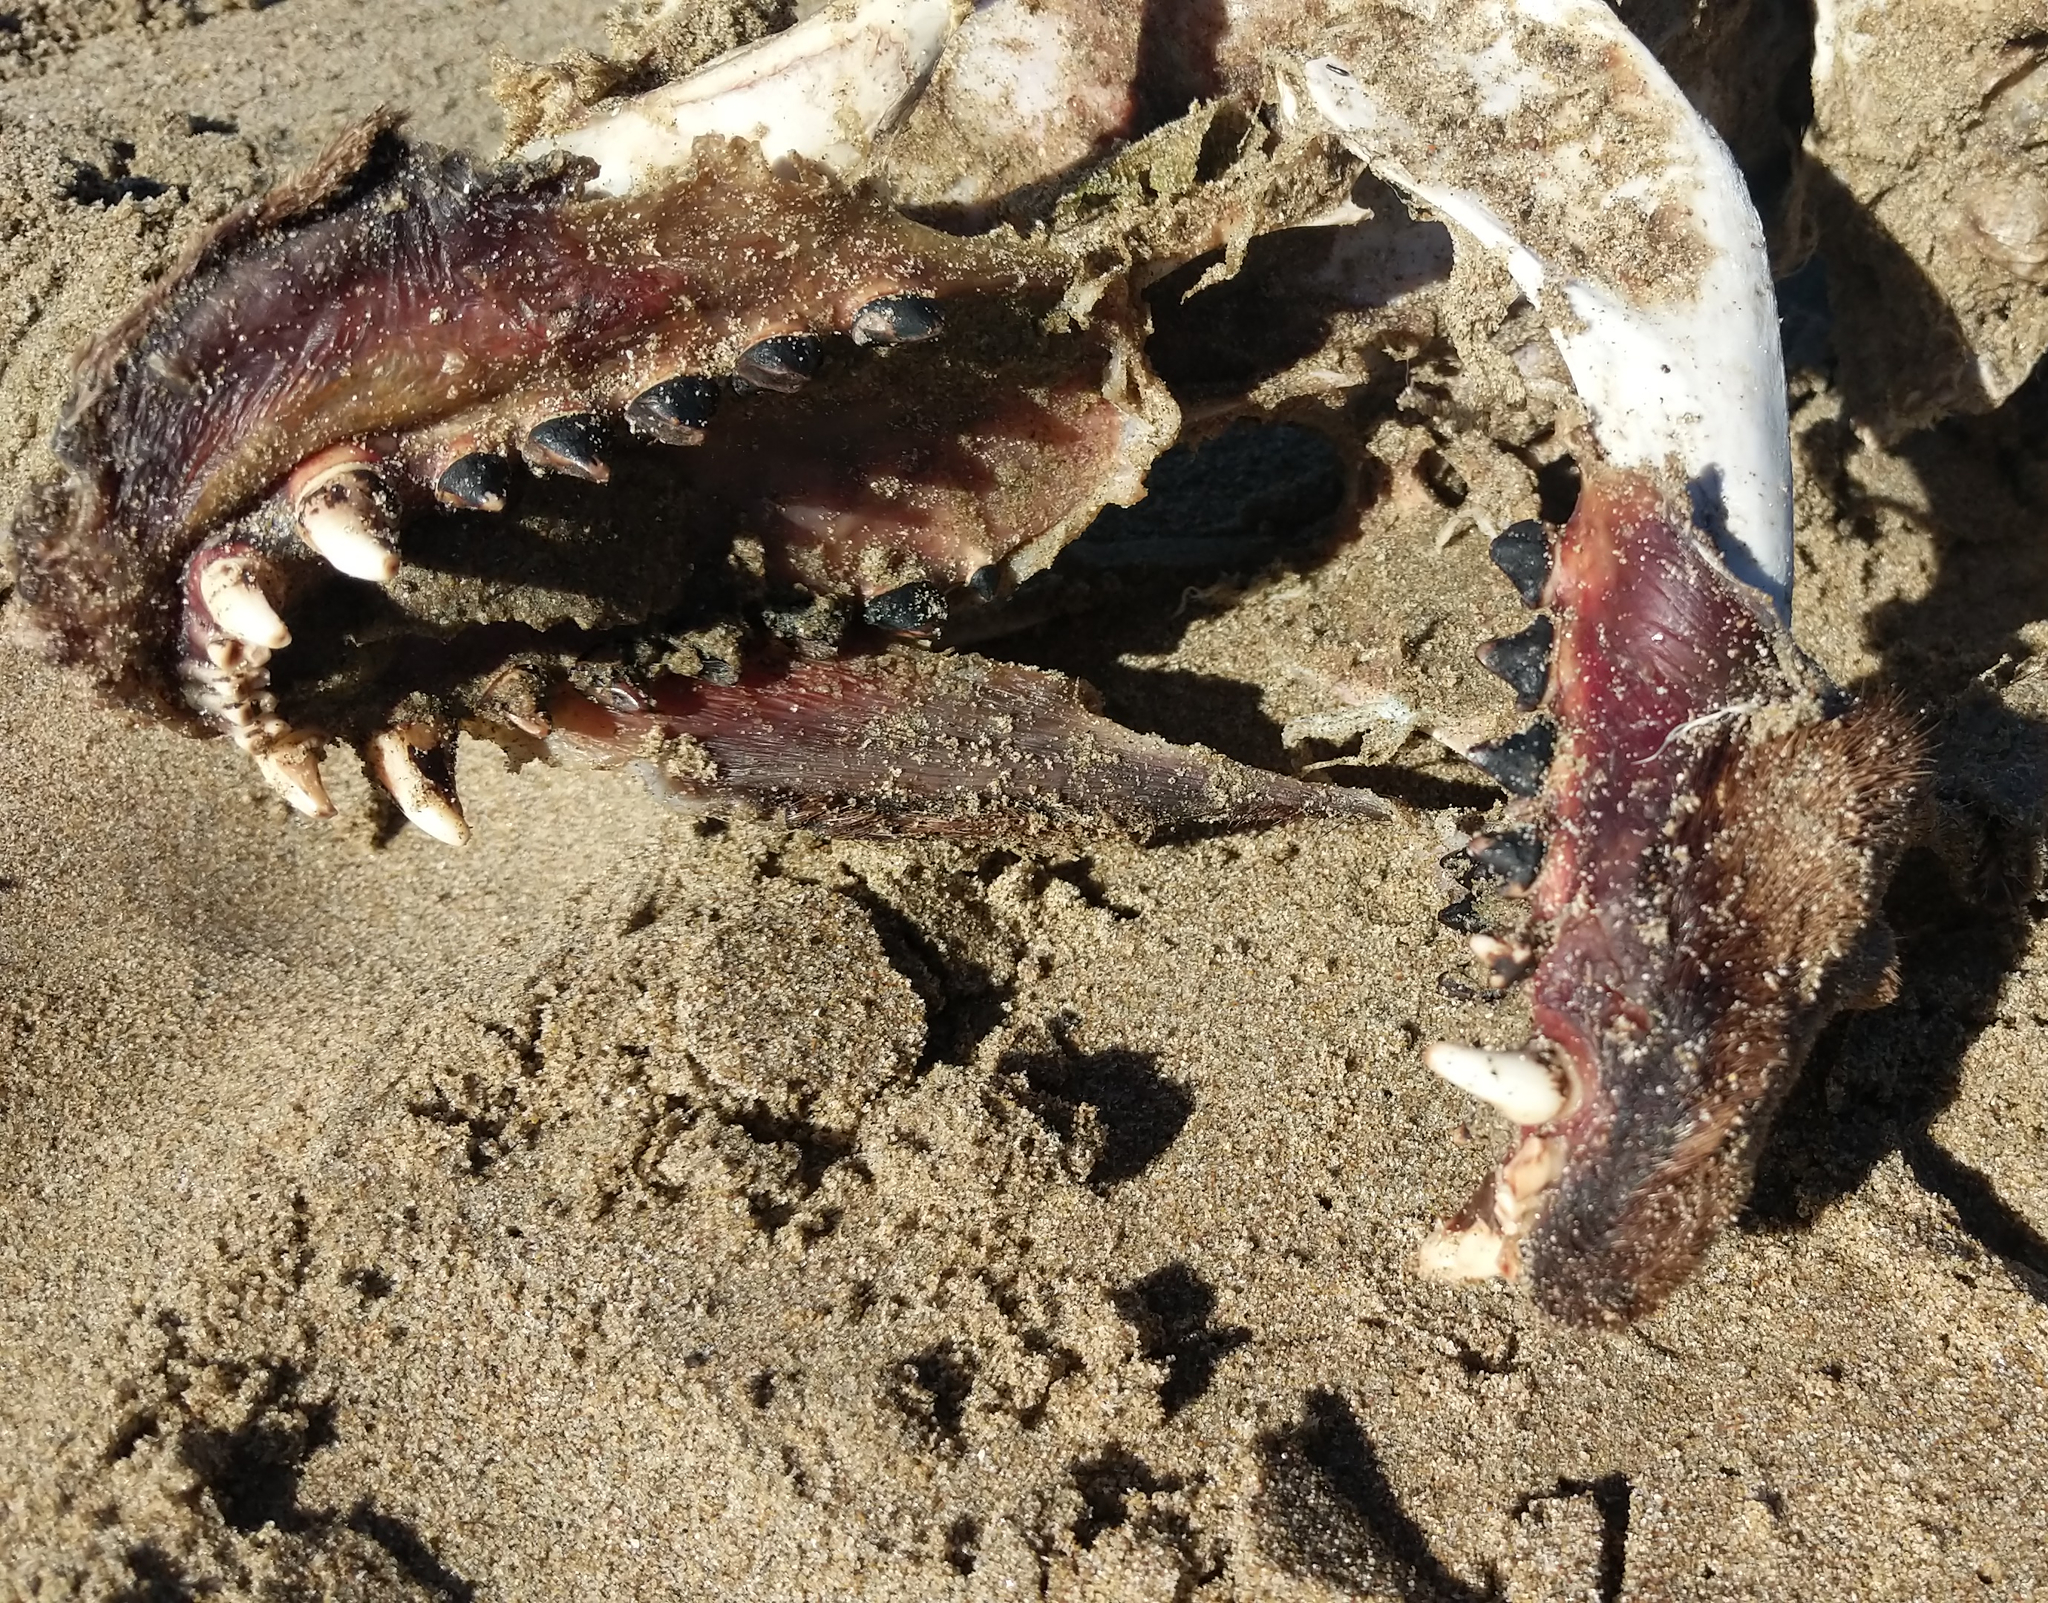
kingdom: Animalia
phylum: Chordata
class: Mammalia
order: Carnivora
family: Otariidae
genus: Zalophus
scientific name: Zalophus californianus
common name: California sea lion
